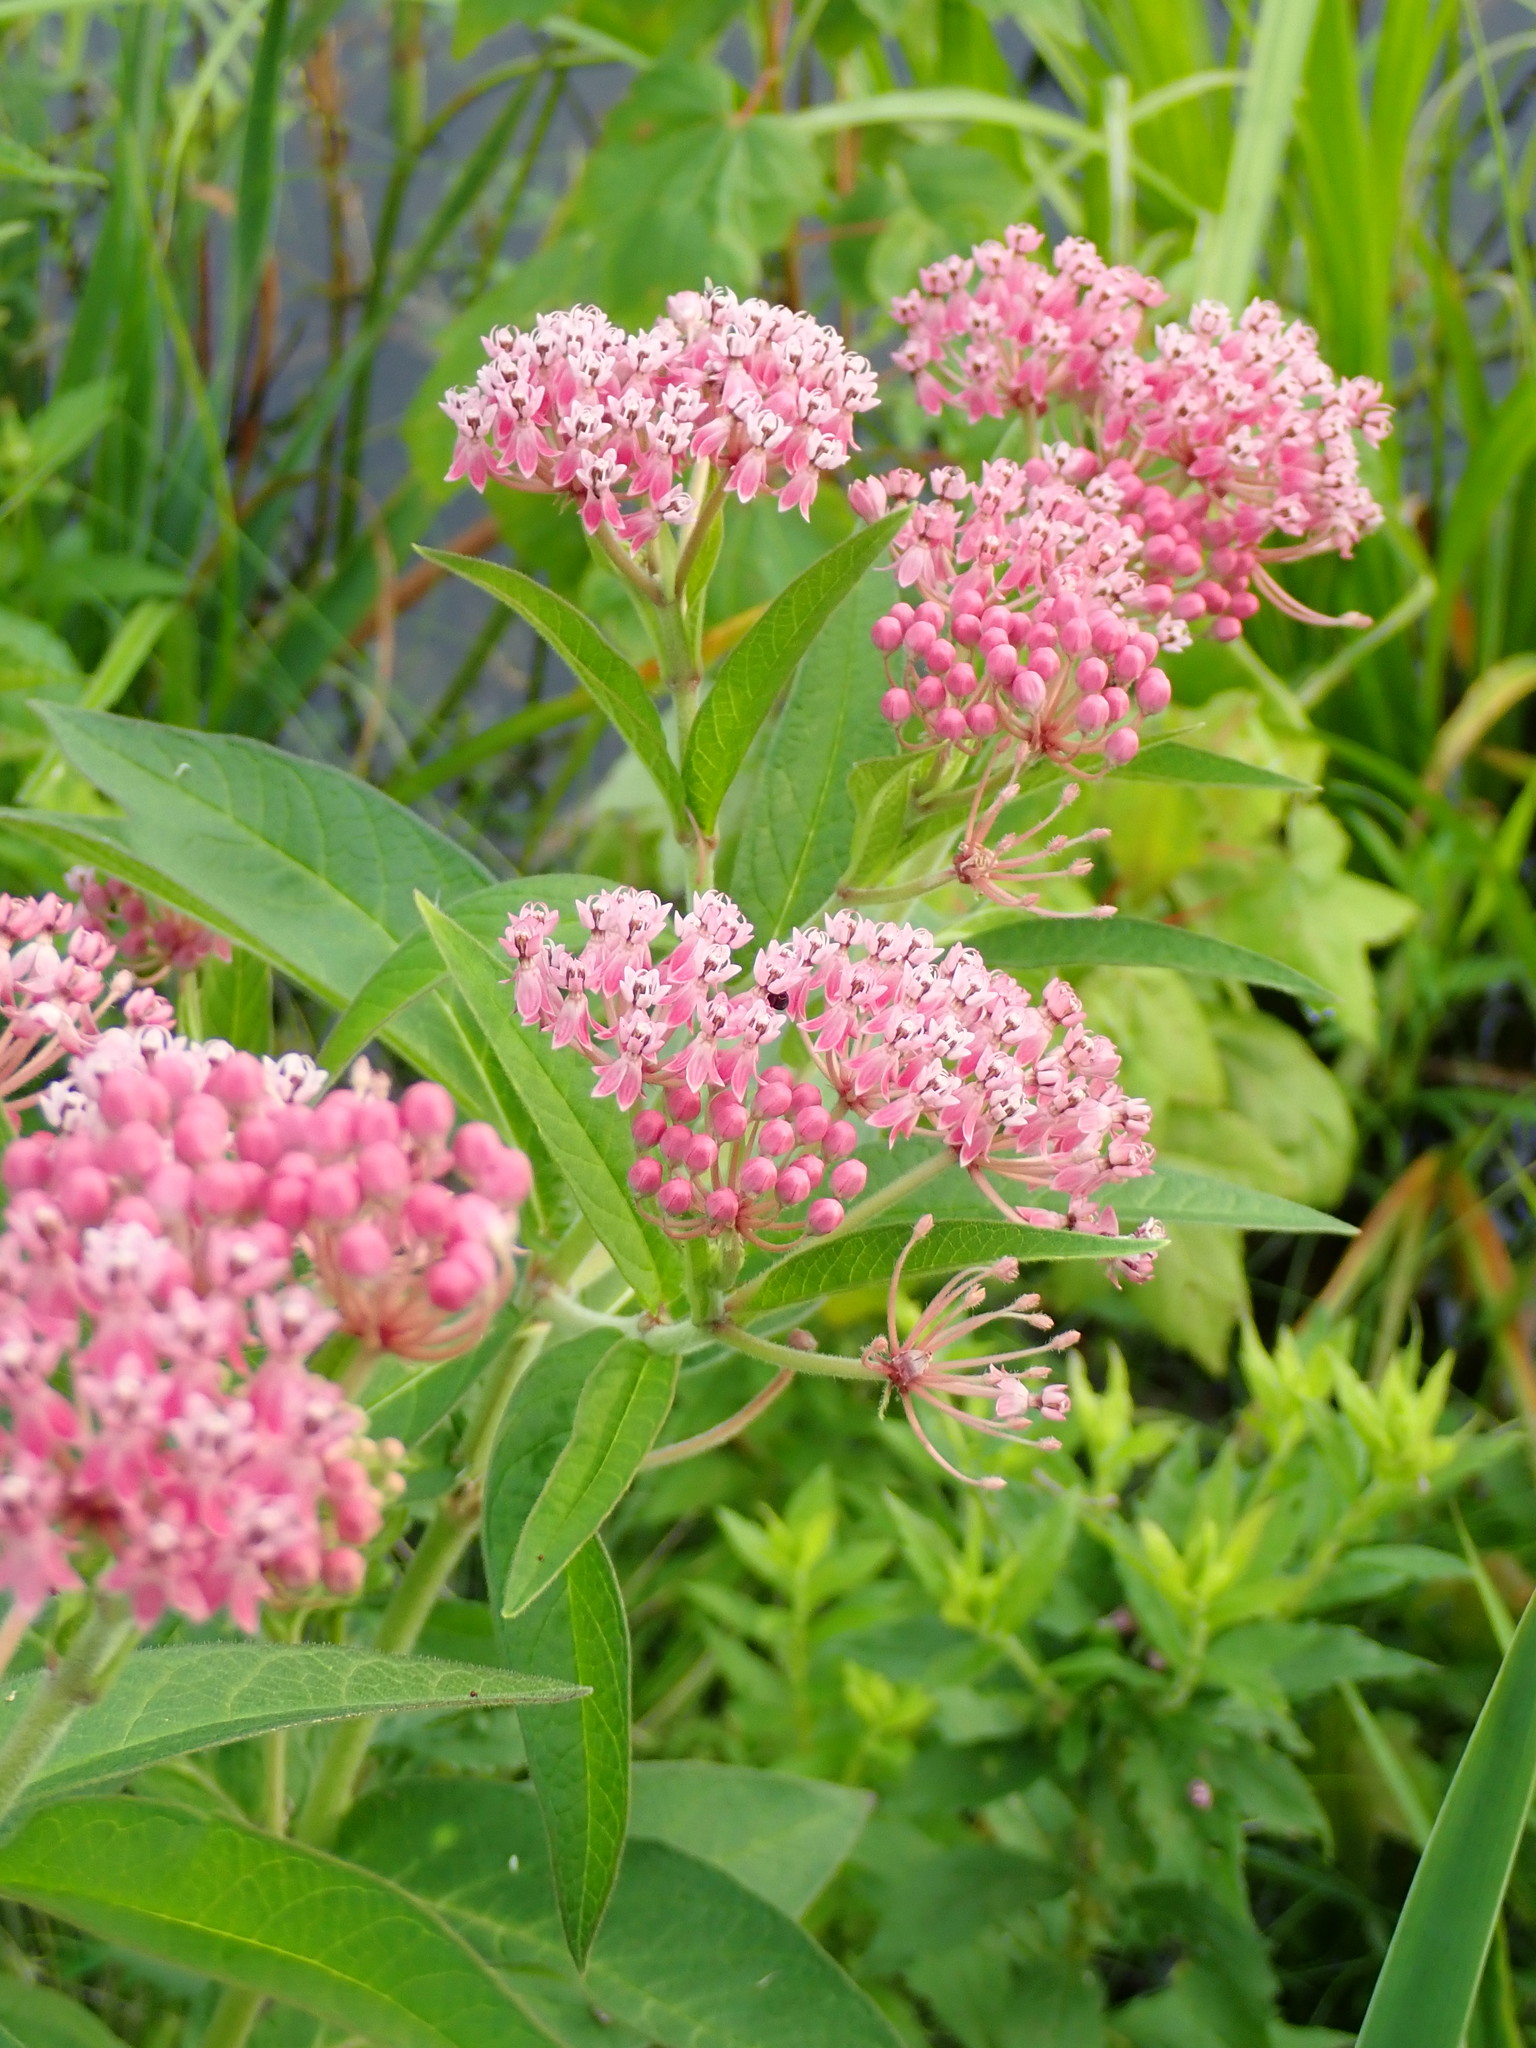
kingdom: Plantae
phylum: Tracheophyta
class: Magnoliopsida
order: Gentianales
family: Apocynaceae
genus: Asclepias
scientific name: Asclepias incarnata
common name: Swamp milkweed
